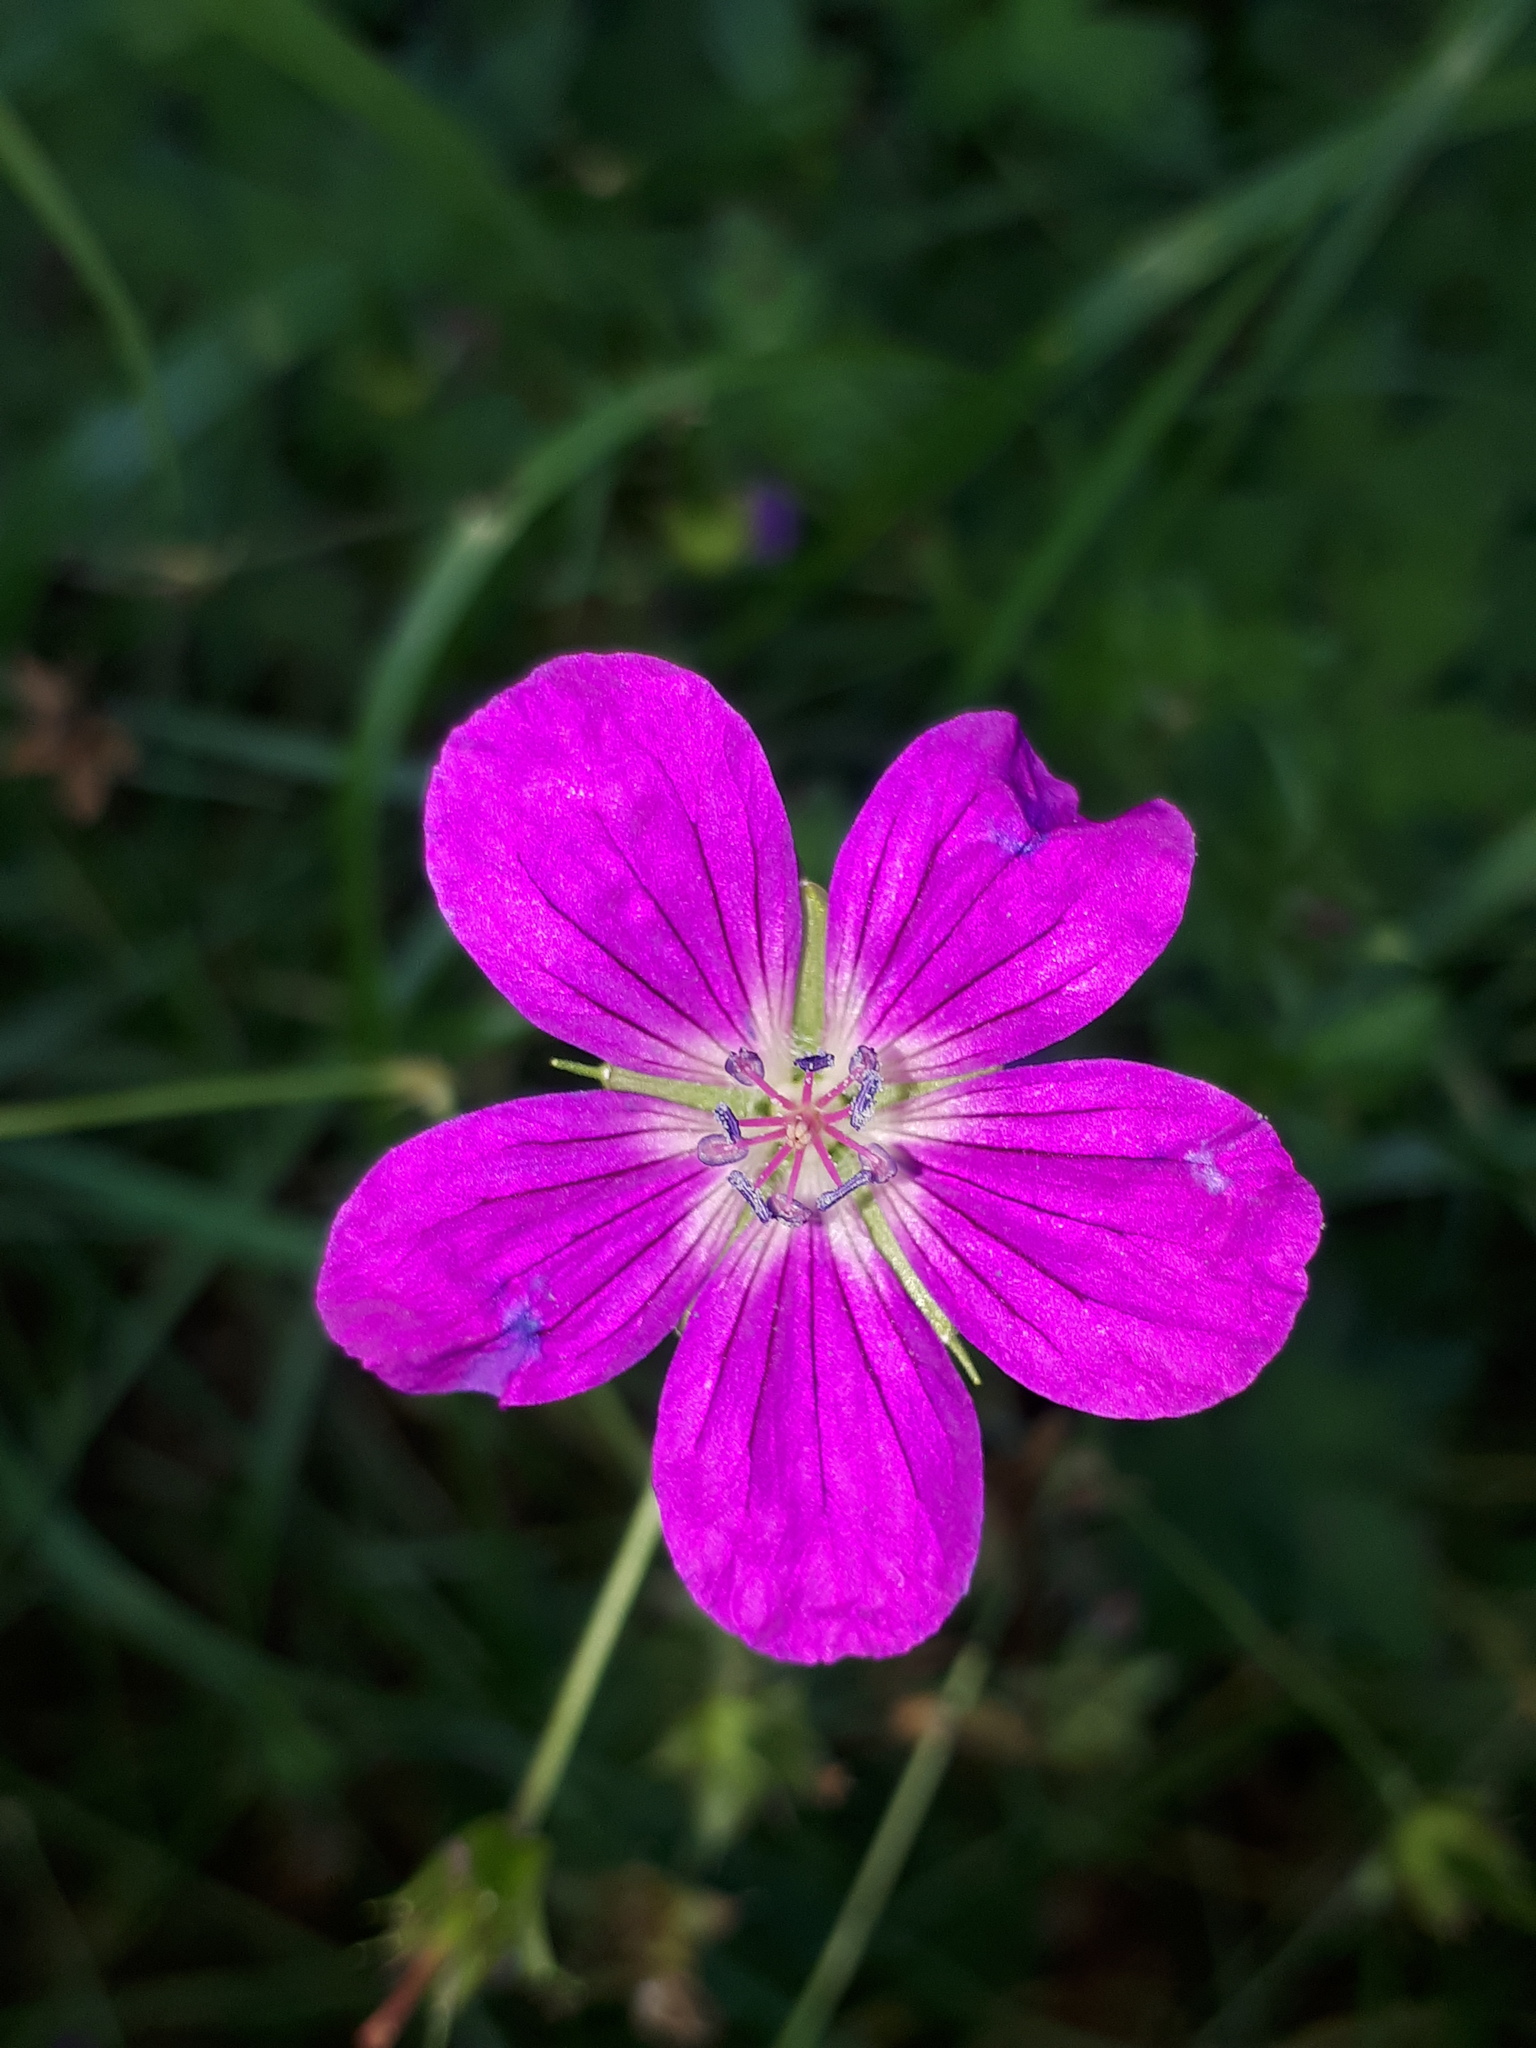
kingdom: Plantae
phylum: Tracheophyta
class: Magnoliopsida
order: Geraniales
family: Geraniaceae
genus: Geranium
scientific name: Geranium sylvaticum
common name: Wood crane's-bill
